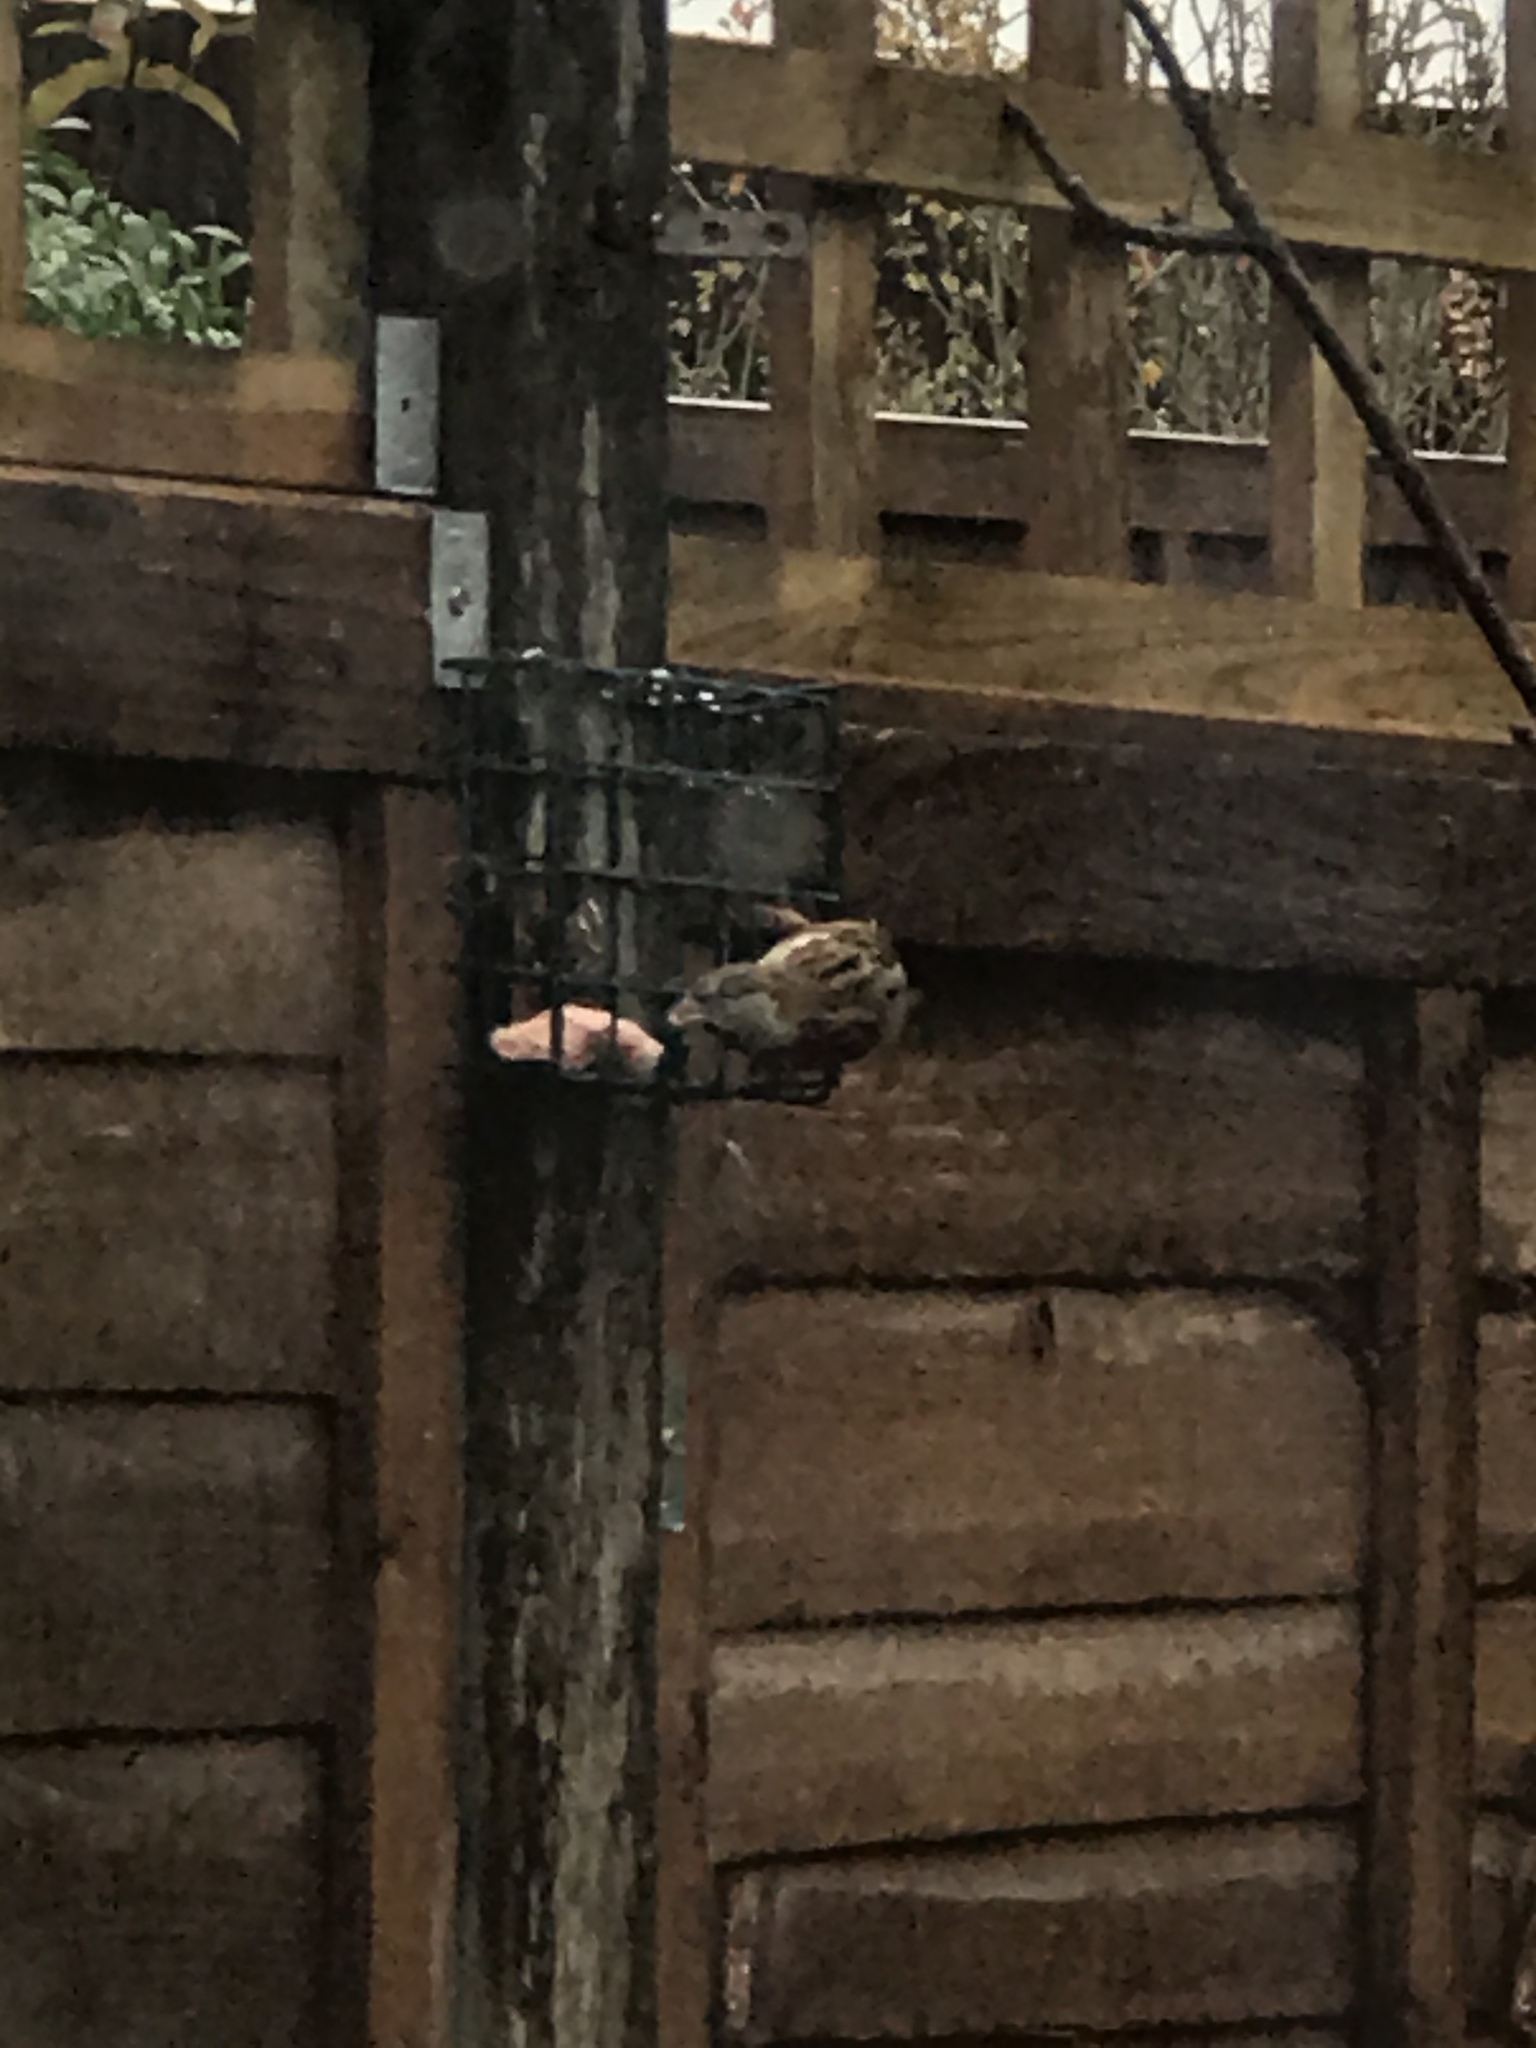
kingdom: Animalia
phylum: Chordata
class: Aves
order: Passeriformes
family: Passeridae
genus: Passer
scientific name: Passer domesticus
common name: House sparrow
